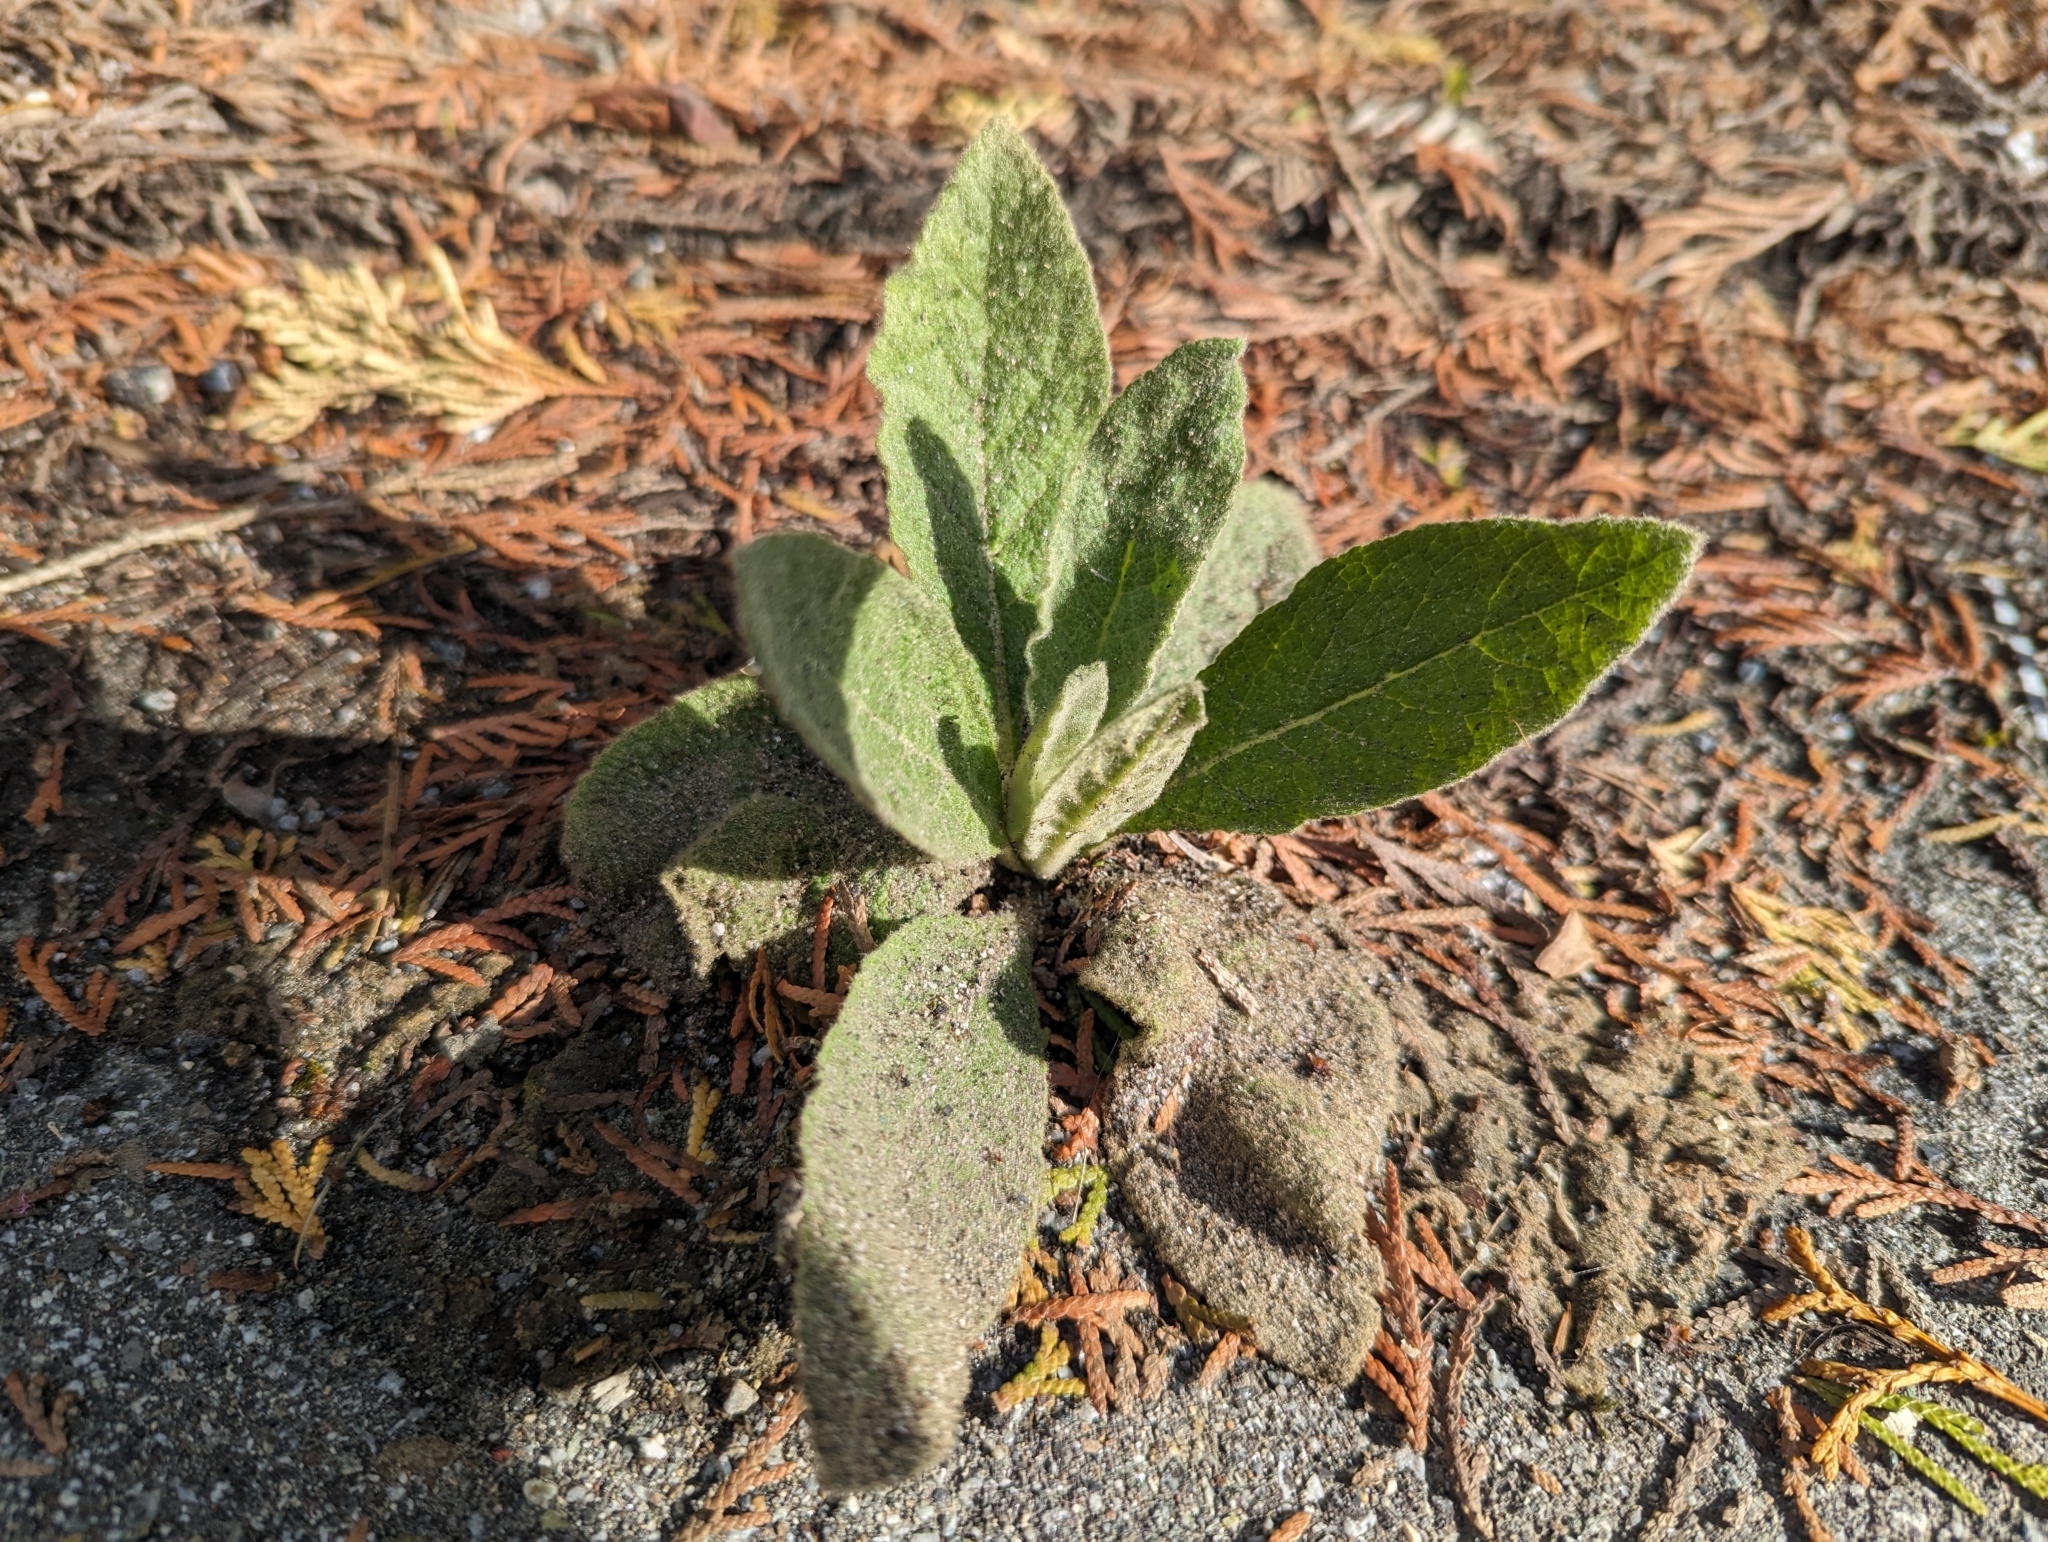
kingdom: Plantae
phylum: Tracheophyta
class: Magnoliopsida
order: Lamiales
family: Scrophulariaceae
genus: Verbascum
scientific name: Verbascum thapsus
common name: Common mullein
